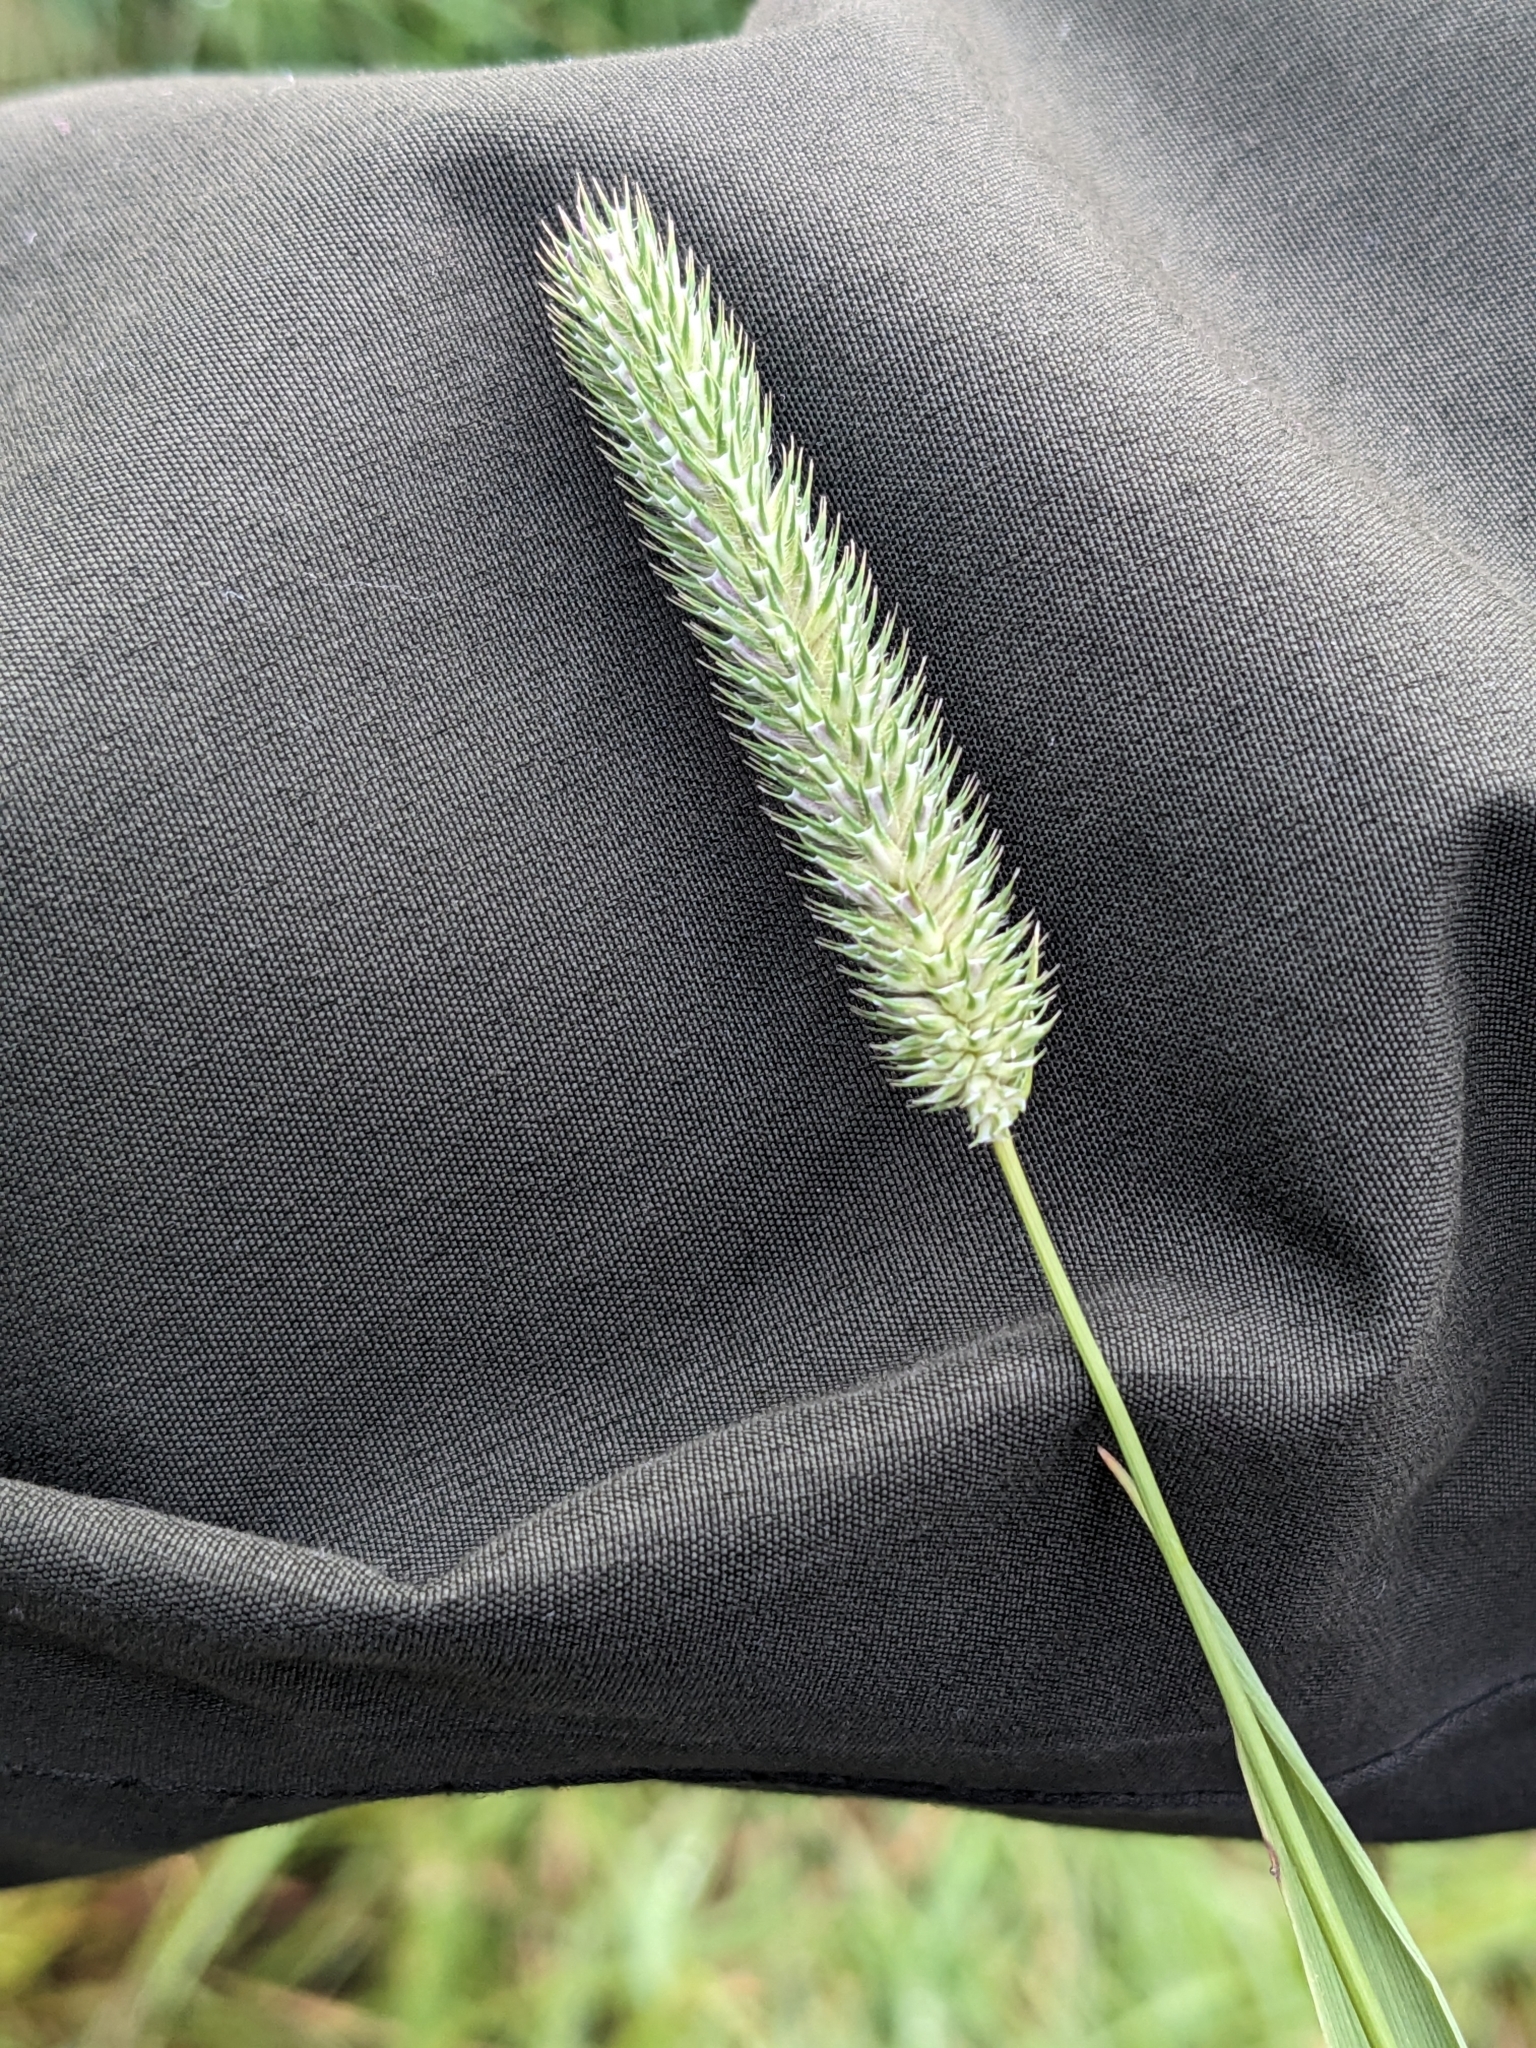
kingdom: Plantae
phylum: Tracheophyta
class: Liliopsida
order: Poales
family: Poaceae
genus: Phleum
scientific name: Phleum pratense
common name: Timothy grass
